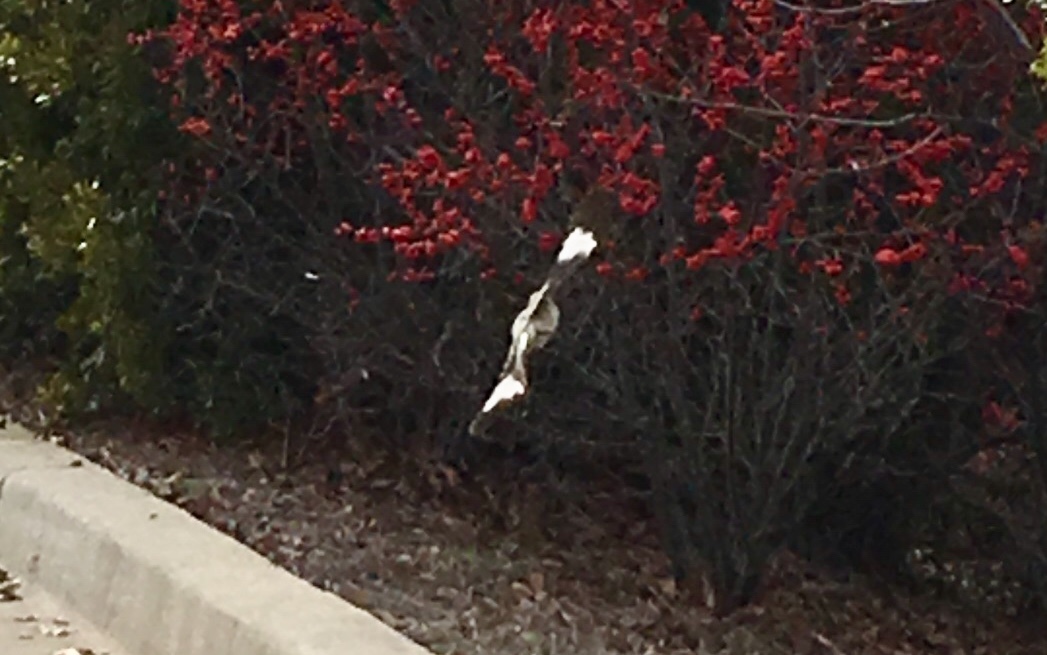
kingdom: Animalia
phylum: Chordata
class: Aves
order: Passeriformes
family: Mimidae
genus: Mimus
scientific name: Mimus polyglottos
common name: Northern mockingbird
